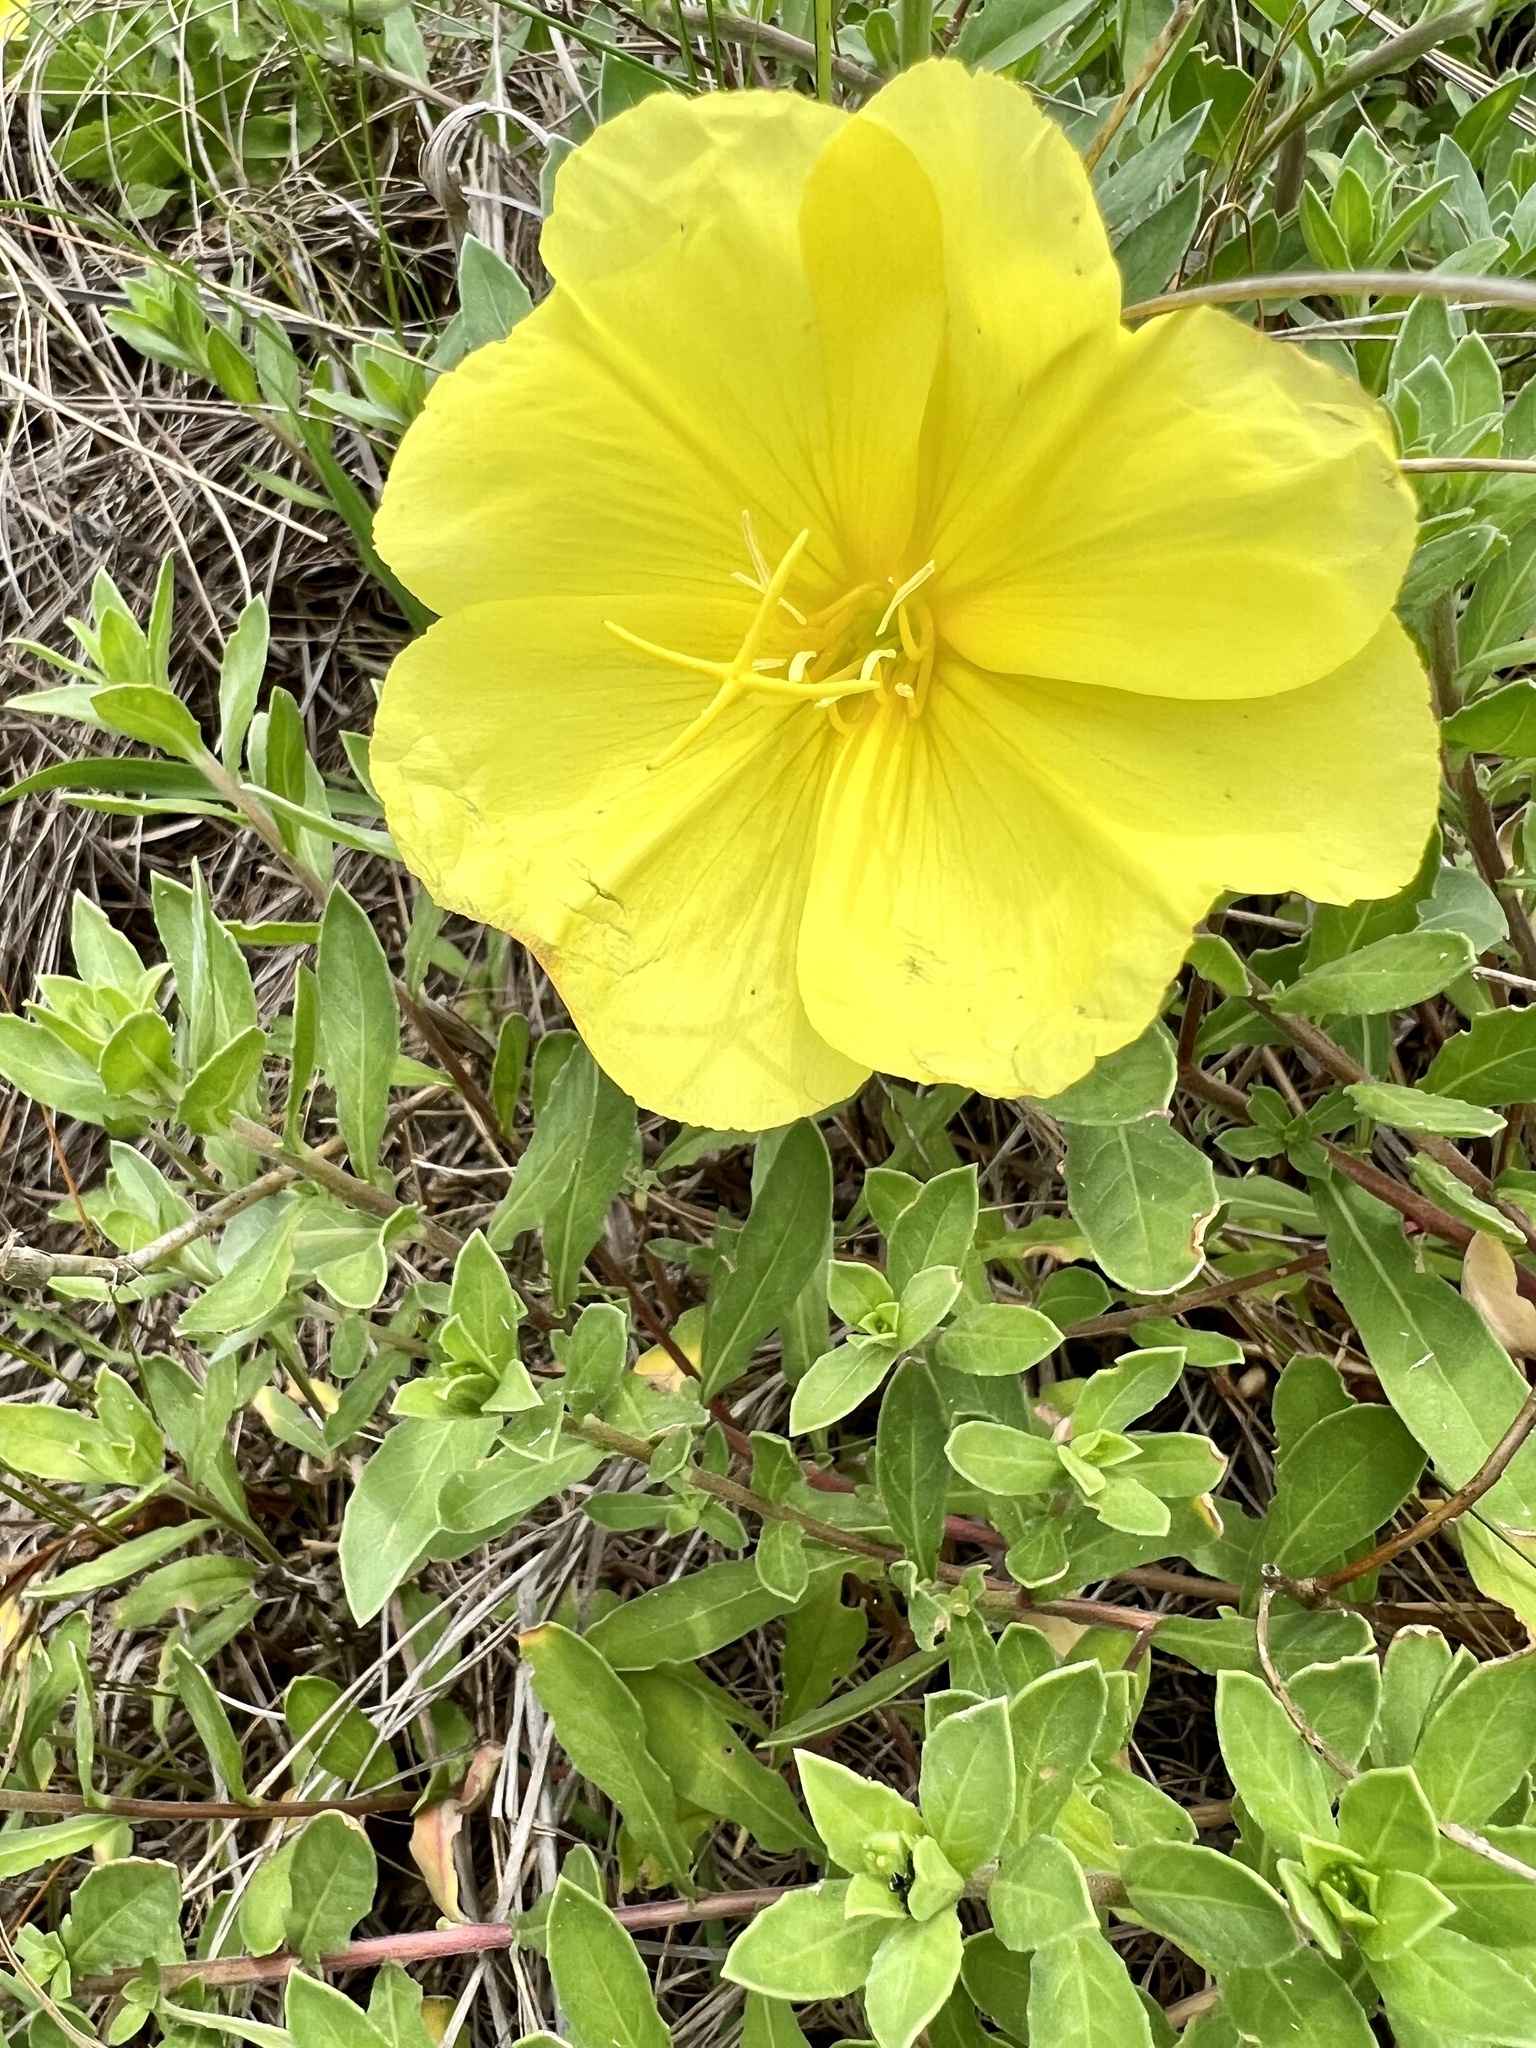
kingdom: Plantae
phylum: Tracheophyta
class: Magnoliopsida
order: Myrtales
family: Onagraceae
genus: Oenothera
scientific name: Oenothera drummondii
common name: Beach evening-primrose
